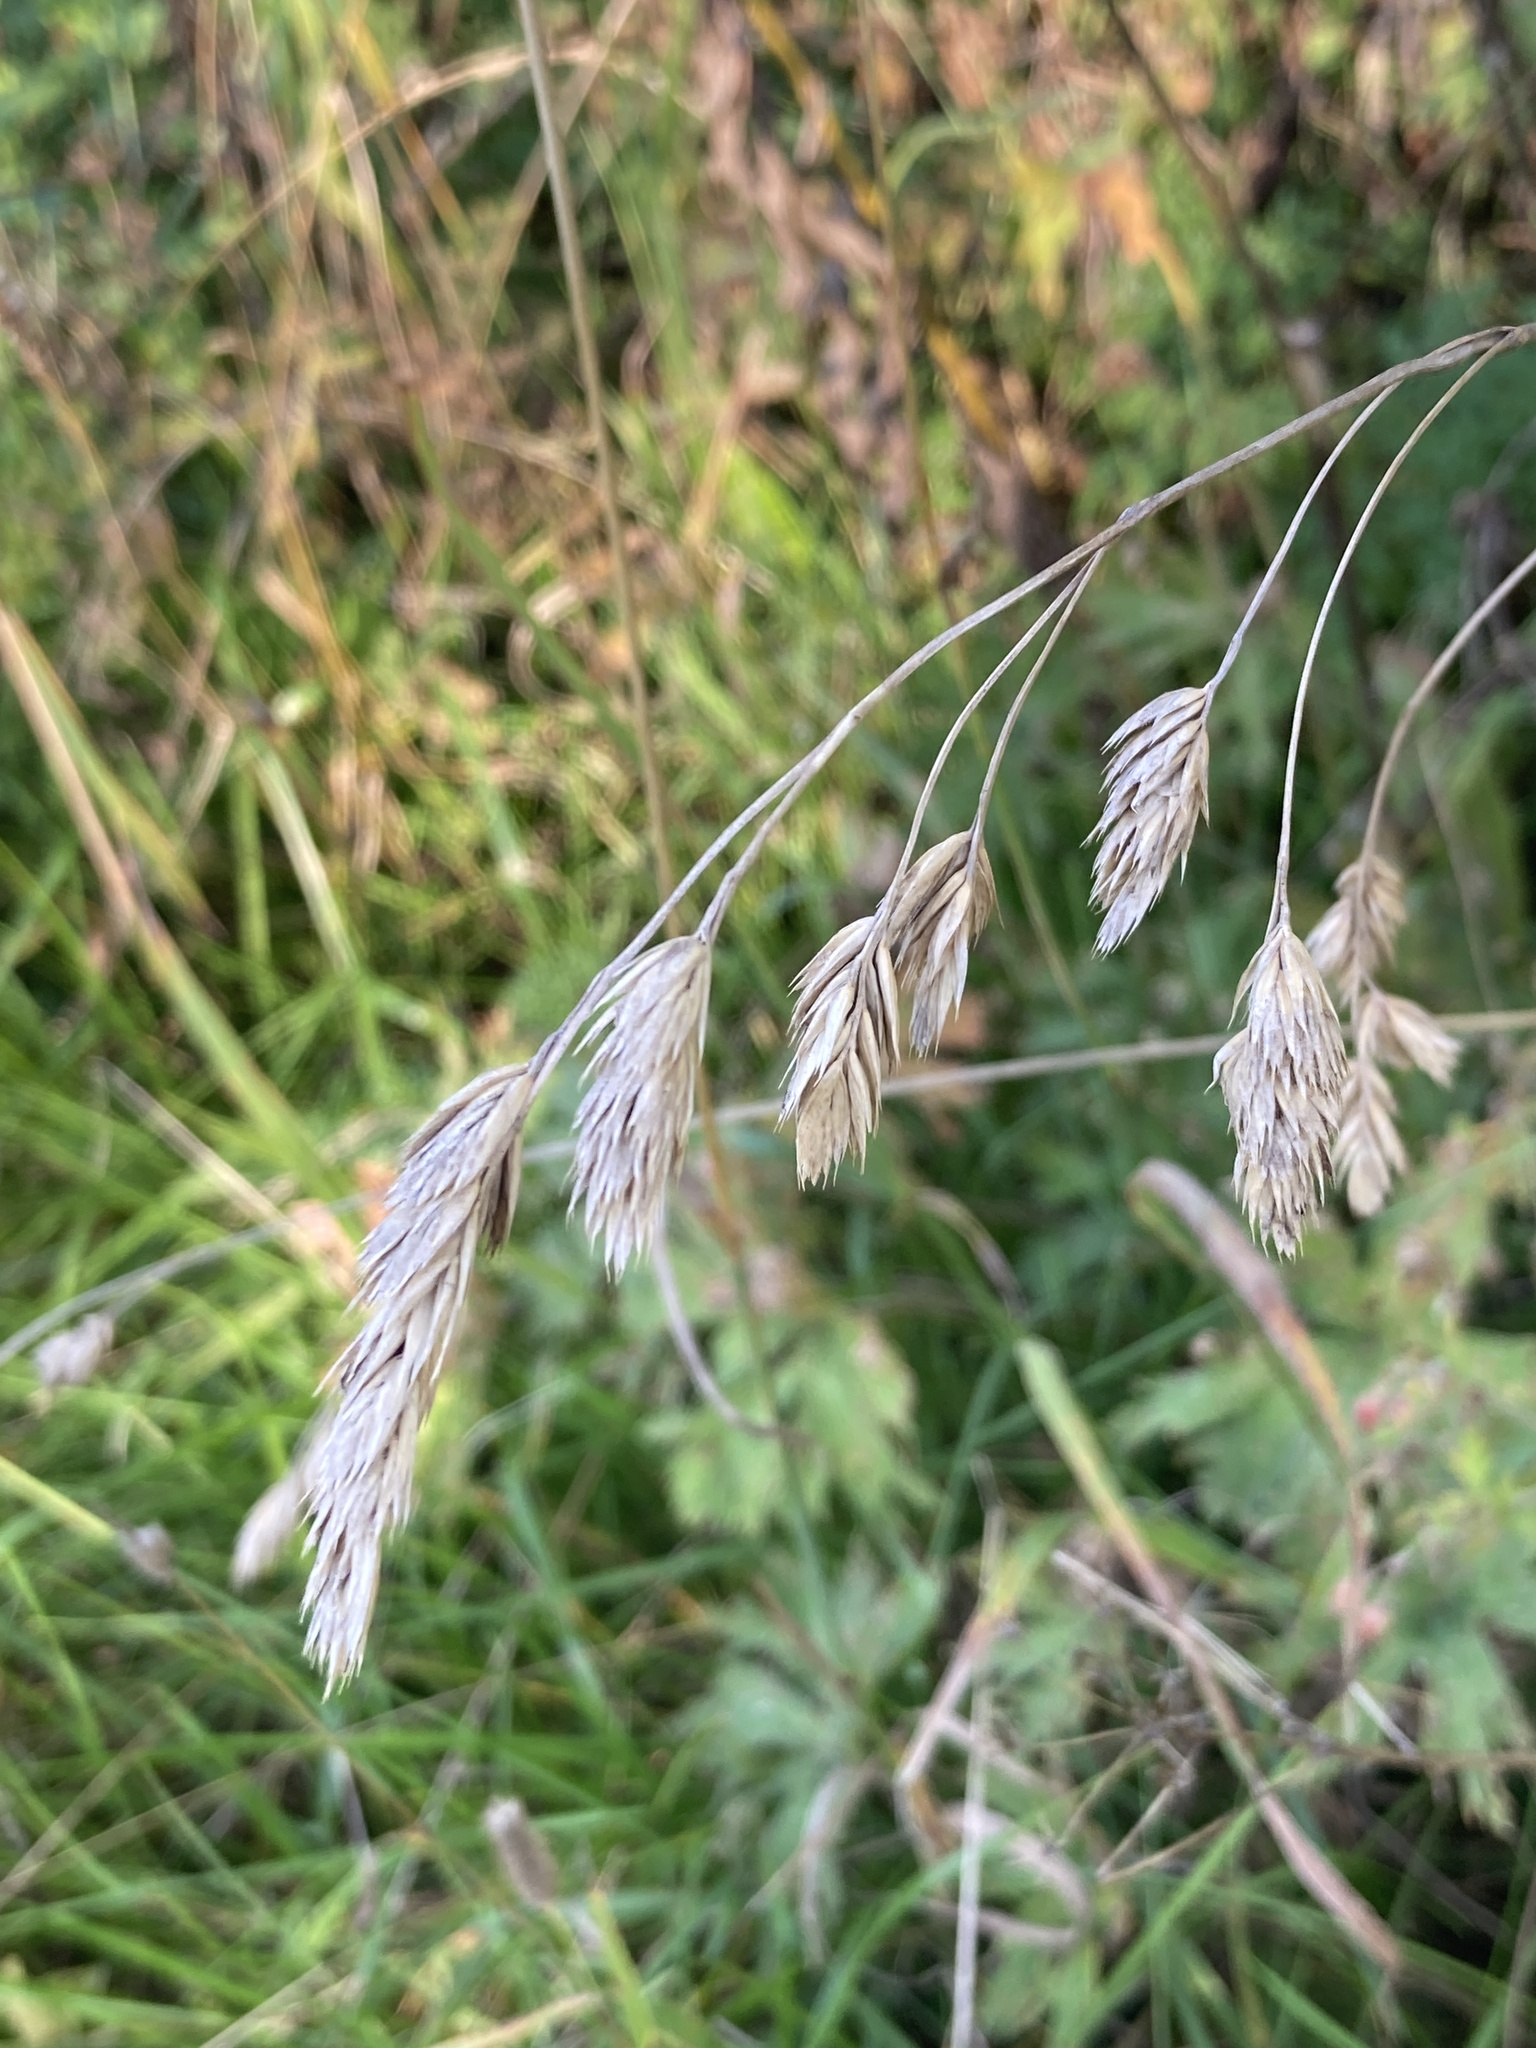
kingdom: Plantae
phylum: Tracheophyta
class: Liliopsida
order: Poales
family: Poaceae
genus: Dactylis
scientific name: Dactylis glomerata
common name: Orchardgrass
